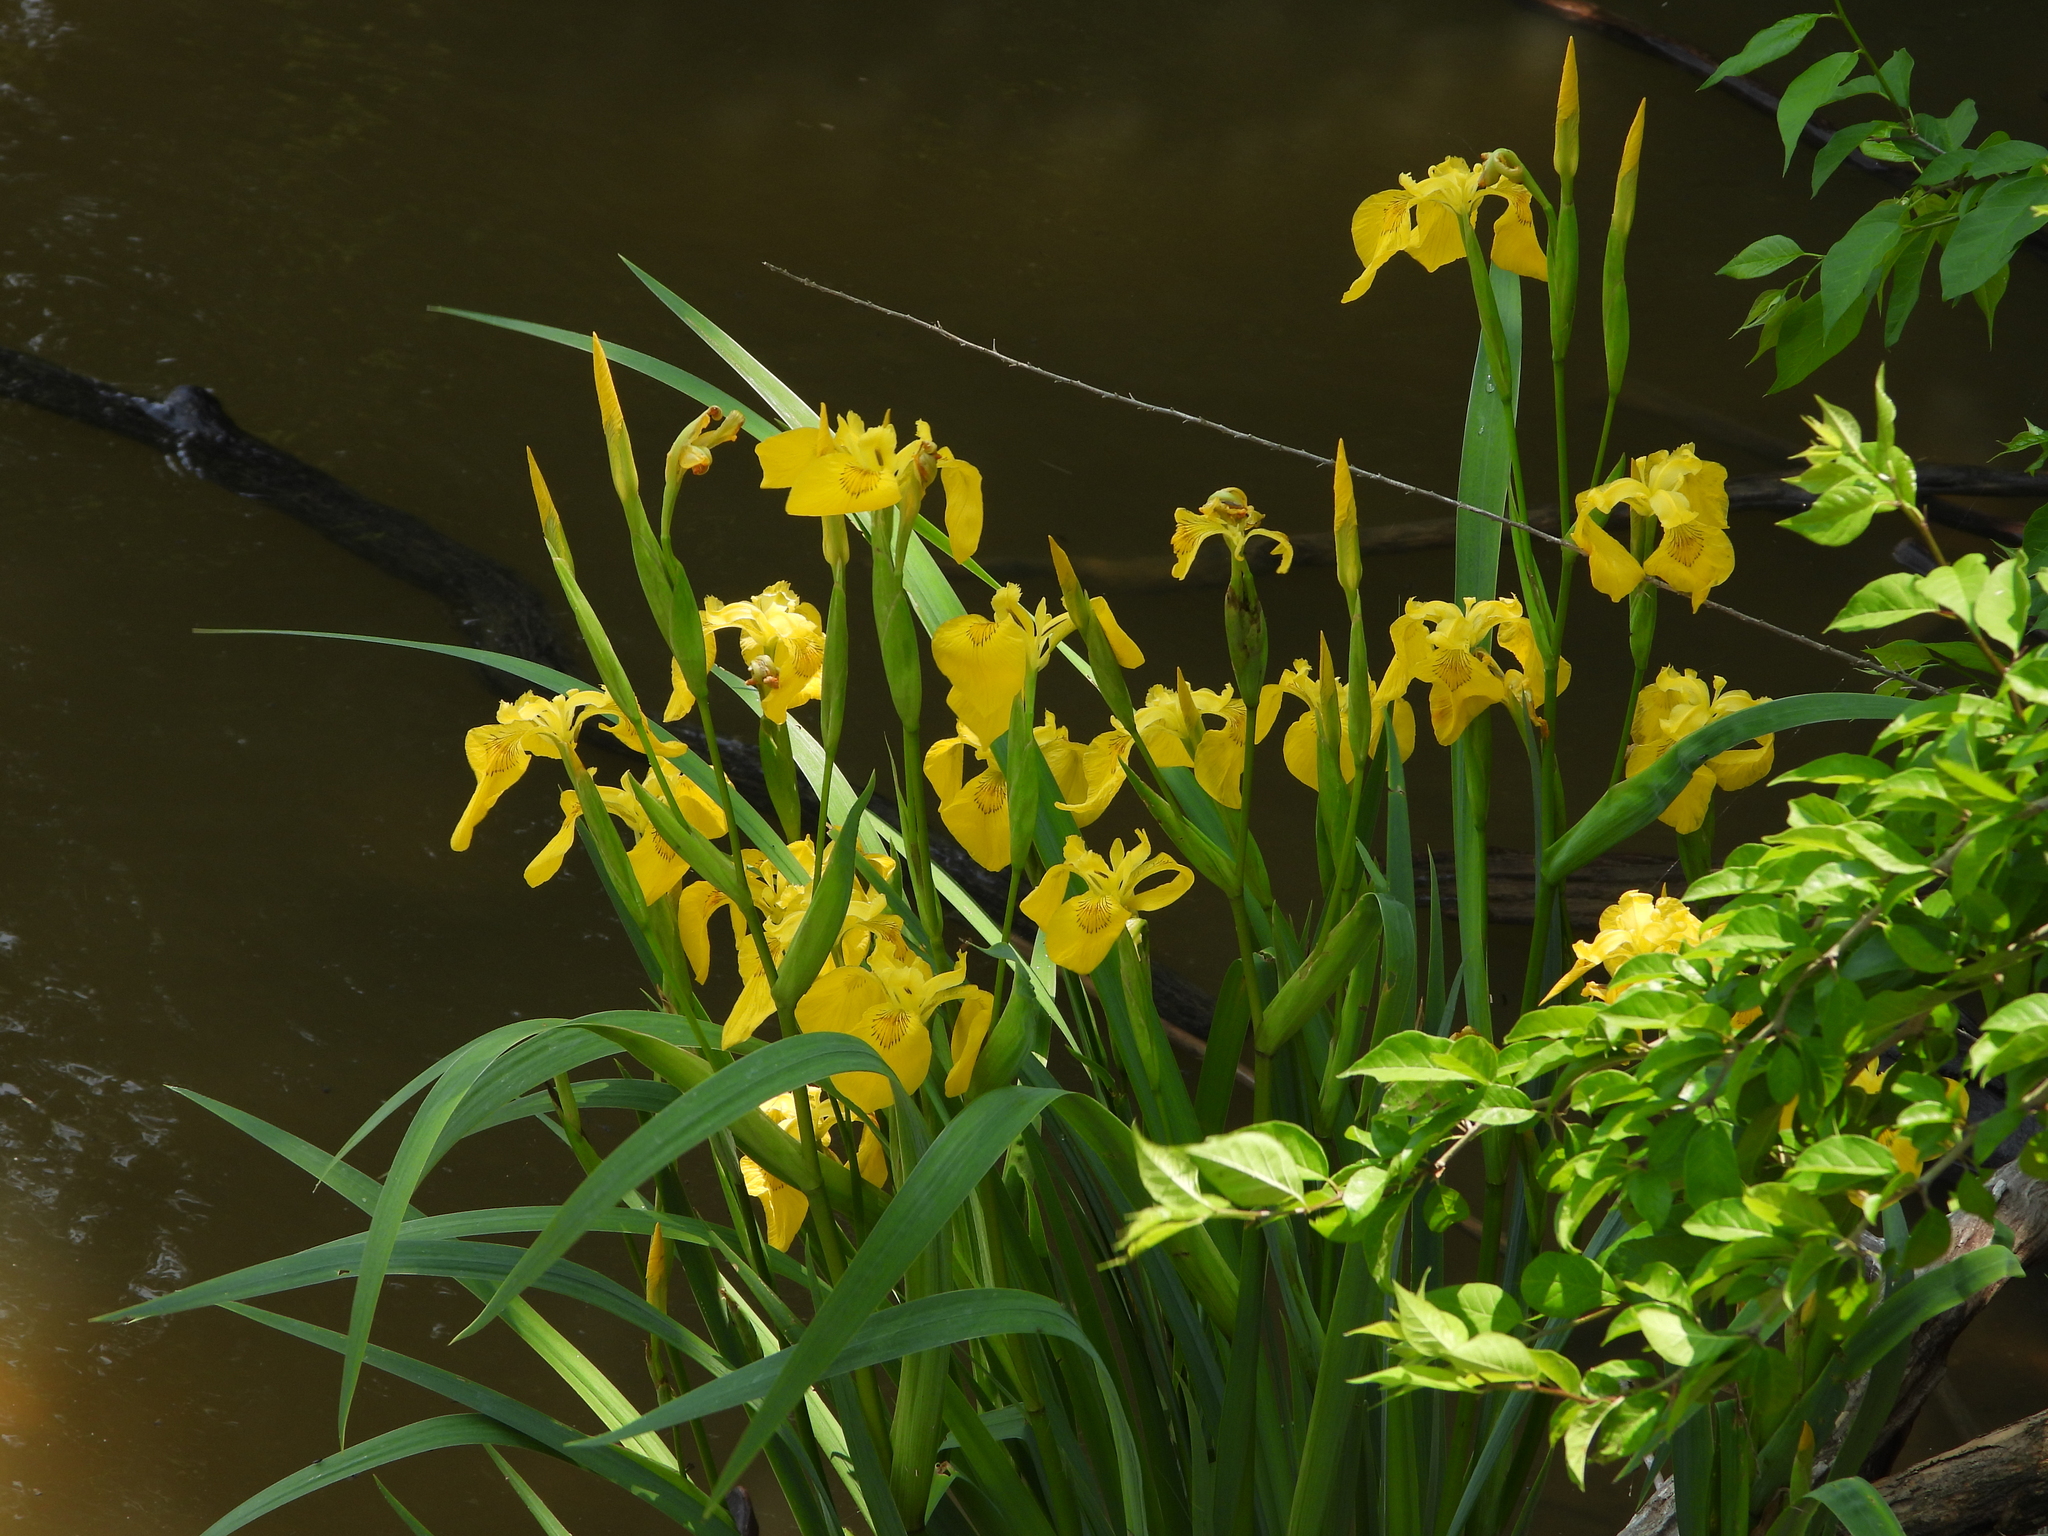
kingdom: Plantae
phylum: Tracheophyta
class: Liliopsida
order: Asparagales
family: Iridaceae
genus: Iris
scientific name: Iris pseudacorus
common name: Yellow flag
